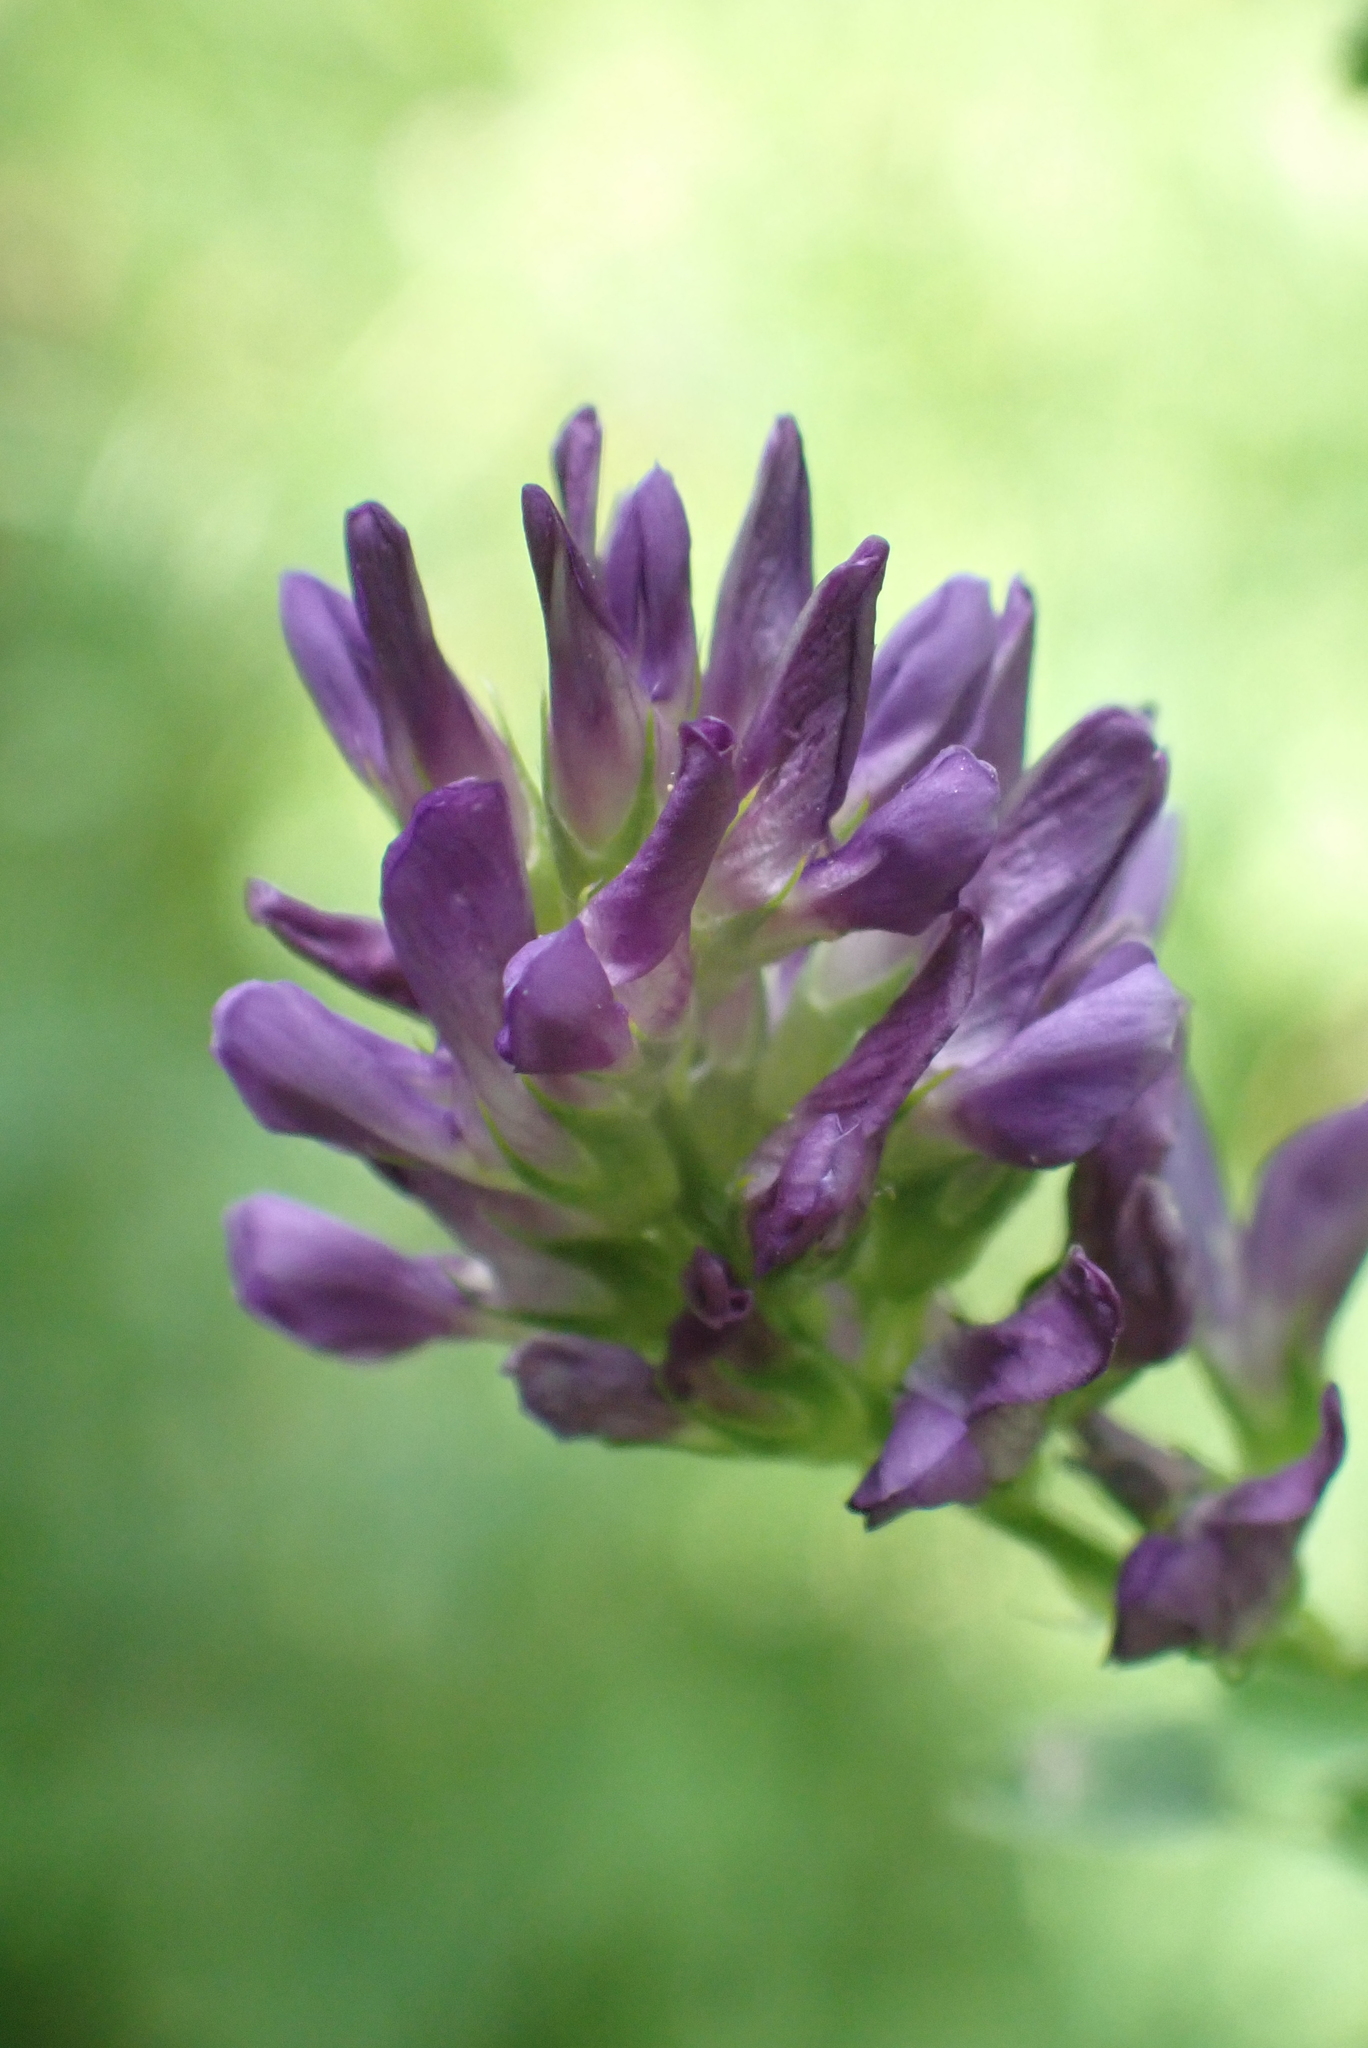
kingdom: Plantae
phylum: Tracheophyta
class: Magnoliopsida
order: Fabales
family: Fabaceae
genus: Medicago
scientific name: Medicago sativa
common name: Alfalfa
